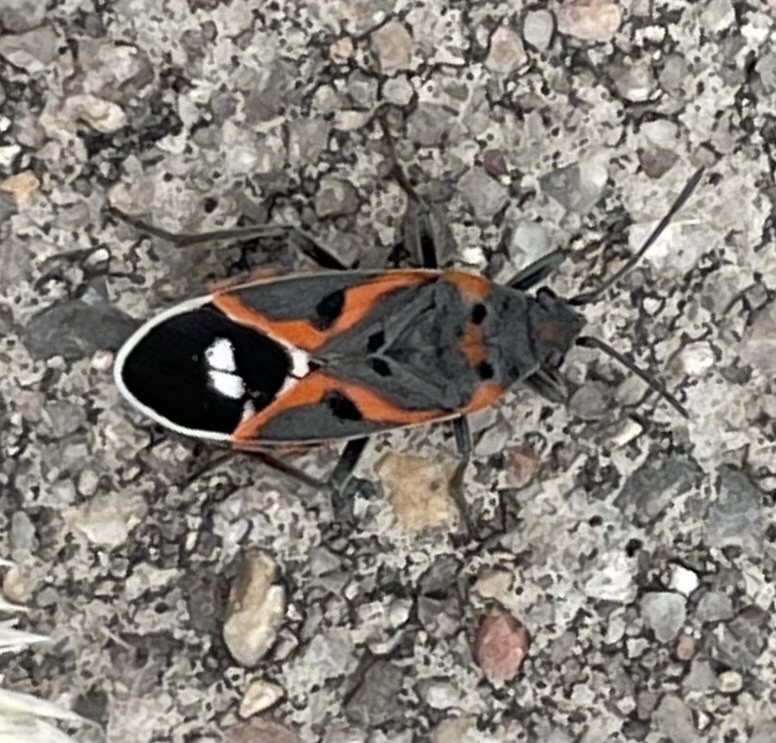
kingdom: Animalia
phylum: Arthropoda
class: Insecta
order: Hemiptera
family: Lygaeidae
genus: Lygaeus
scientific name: Lygaeus kalmii
